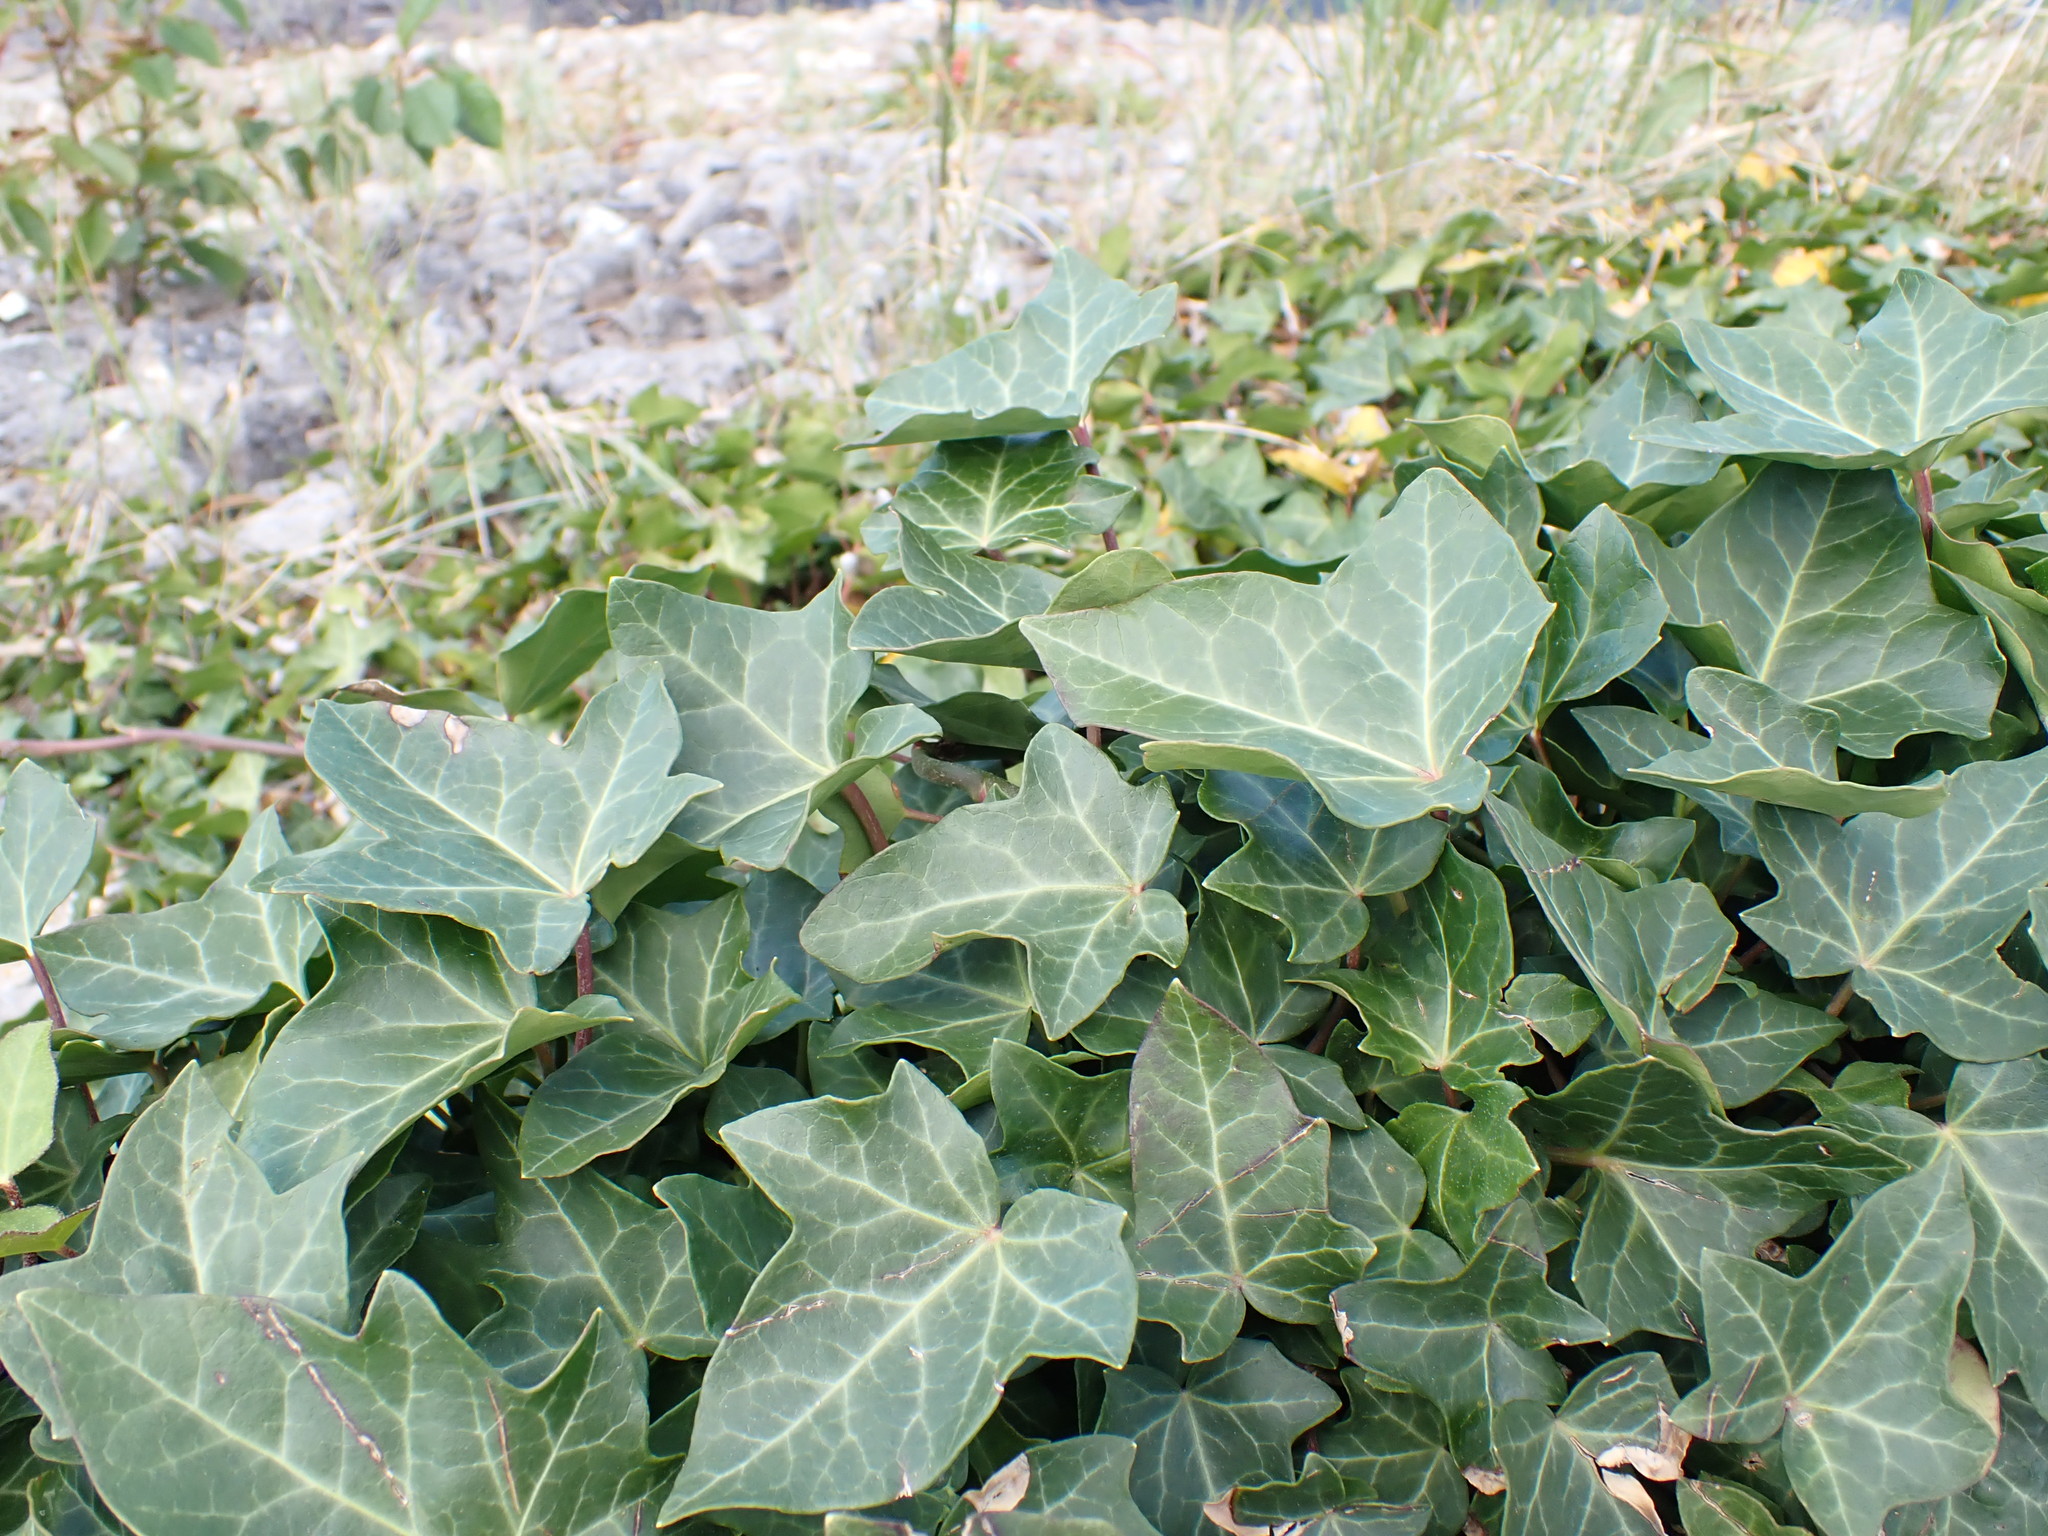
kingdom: Plantae
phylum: Tracheophyta
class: Magnoliopsida
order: Apiales
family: Araliaceae
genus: Hedera
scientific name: Hedera helix
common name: Ivy
